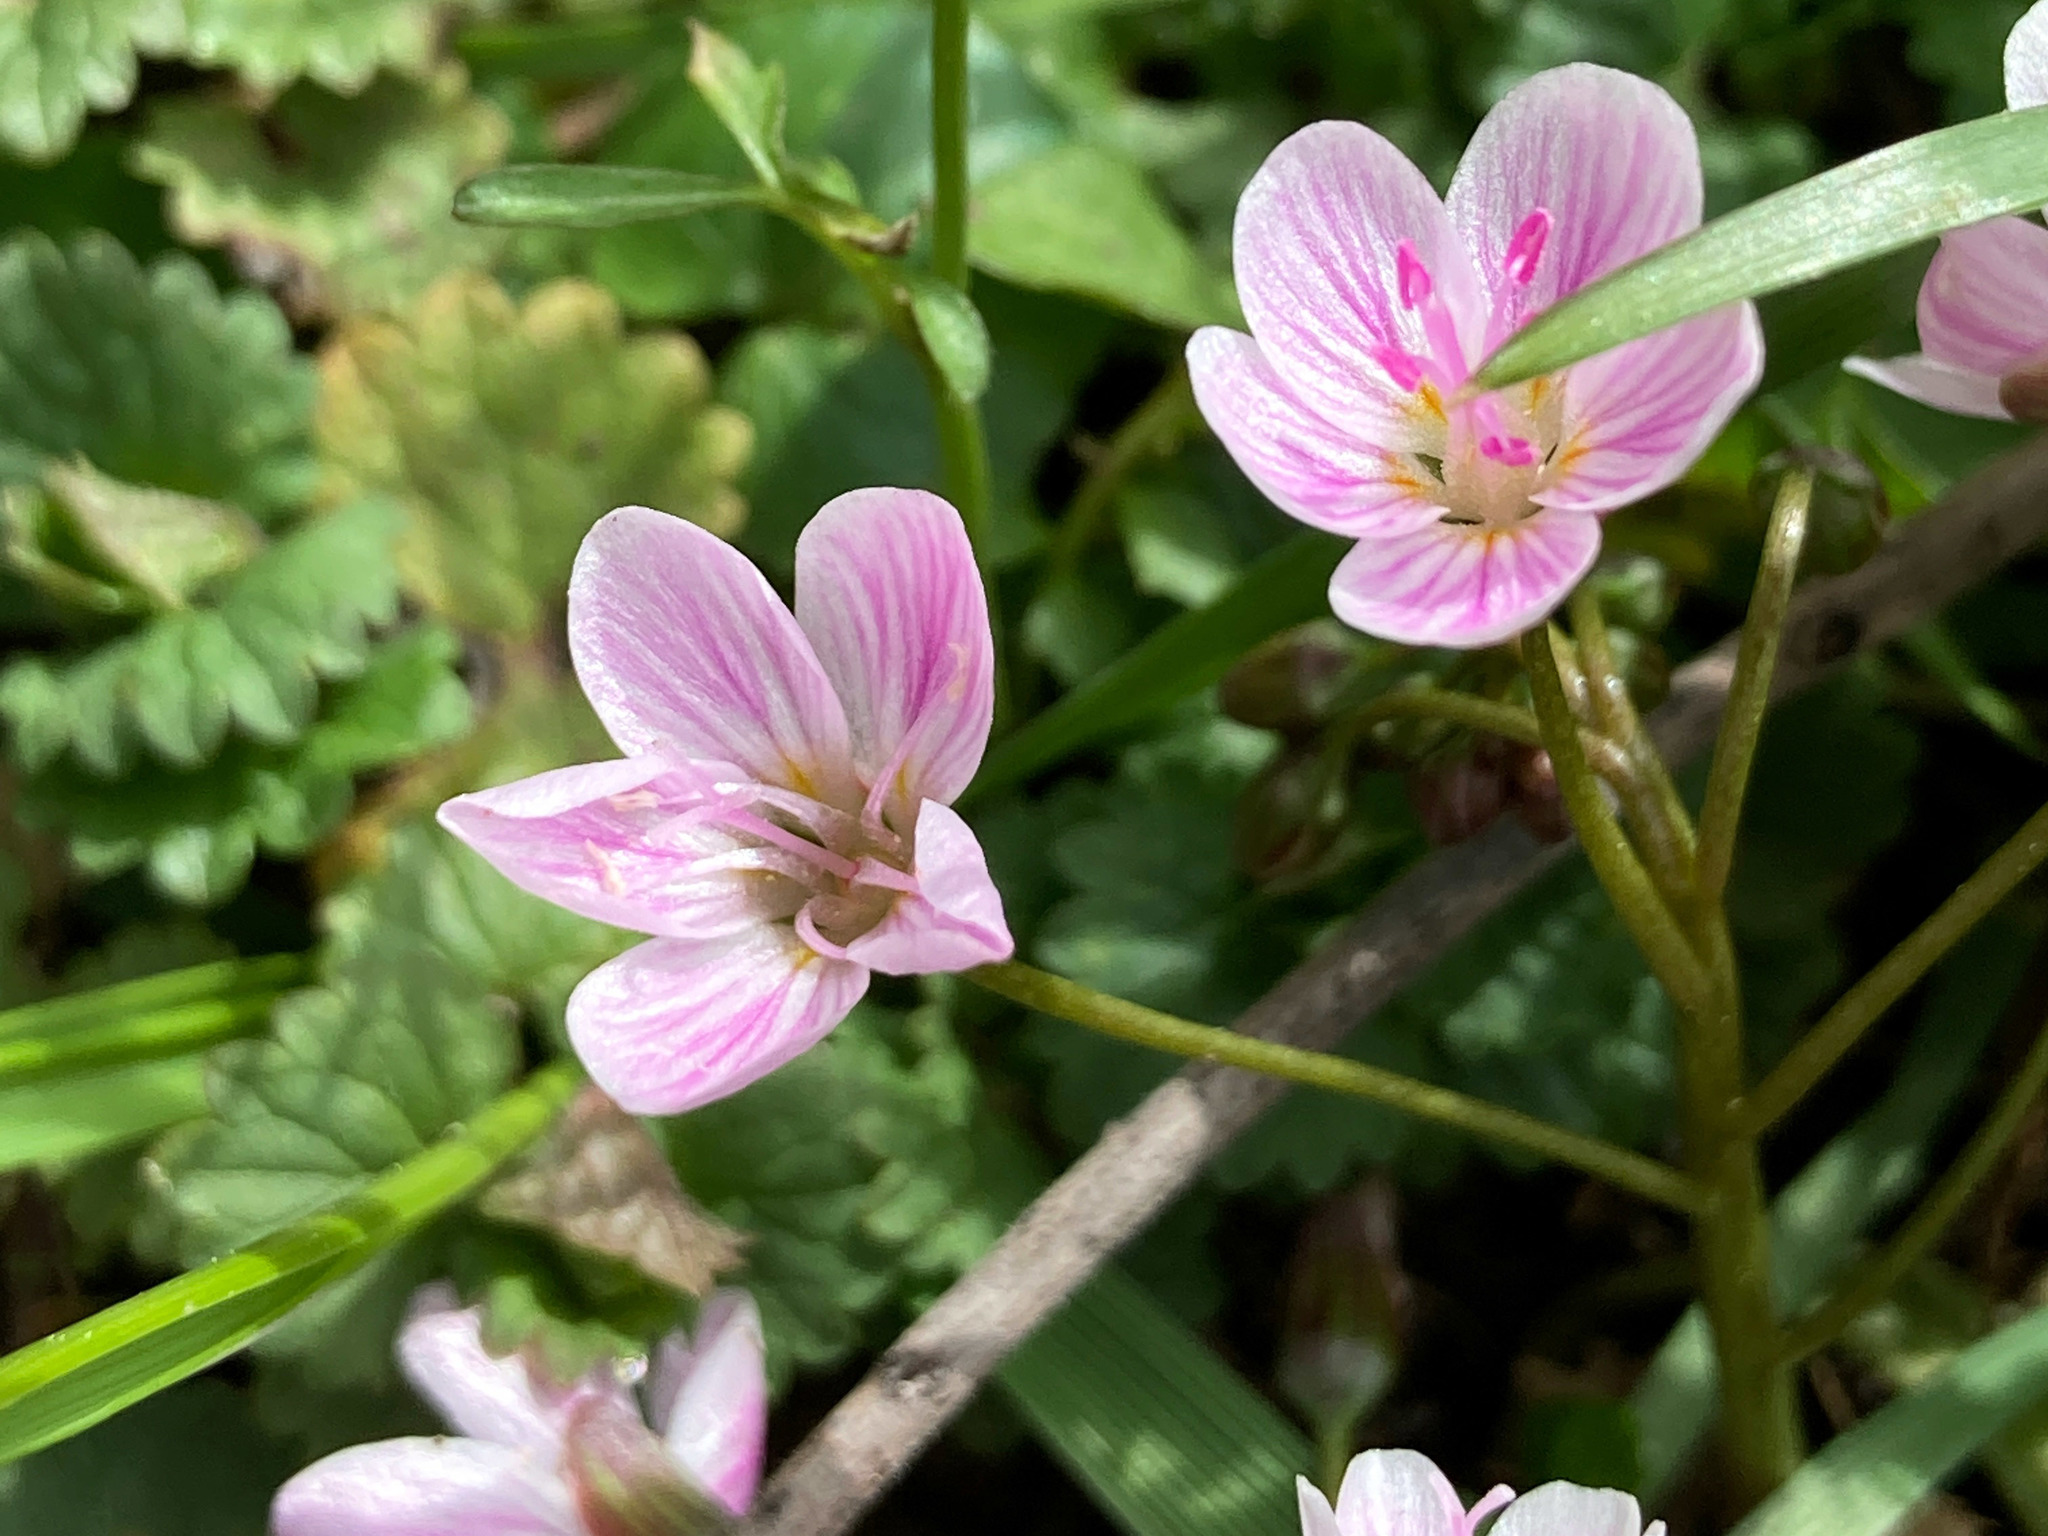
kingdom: Plantae
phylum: Tracheophyta
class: Magnoliopsida
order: Caryophyllales
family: Montiaceae
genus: Claytonia
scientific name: Claytonia virginica
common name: Virginia springbeauty
